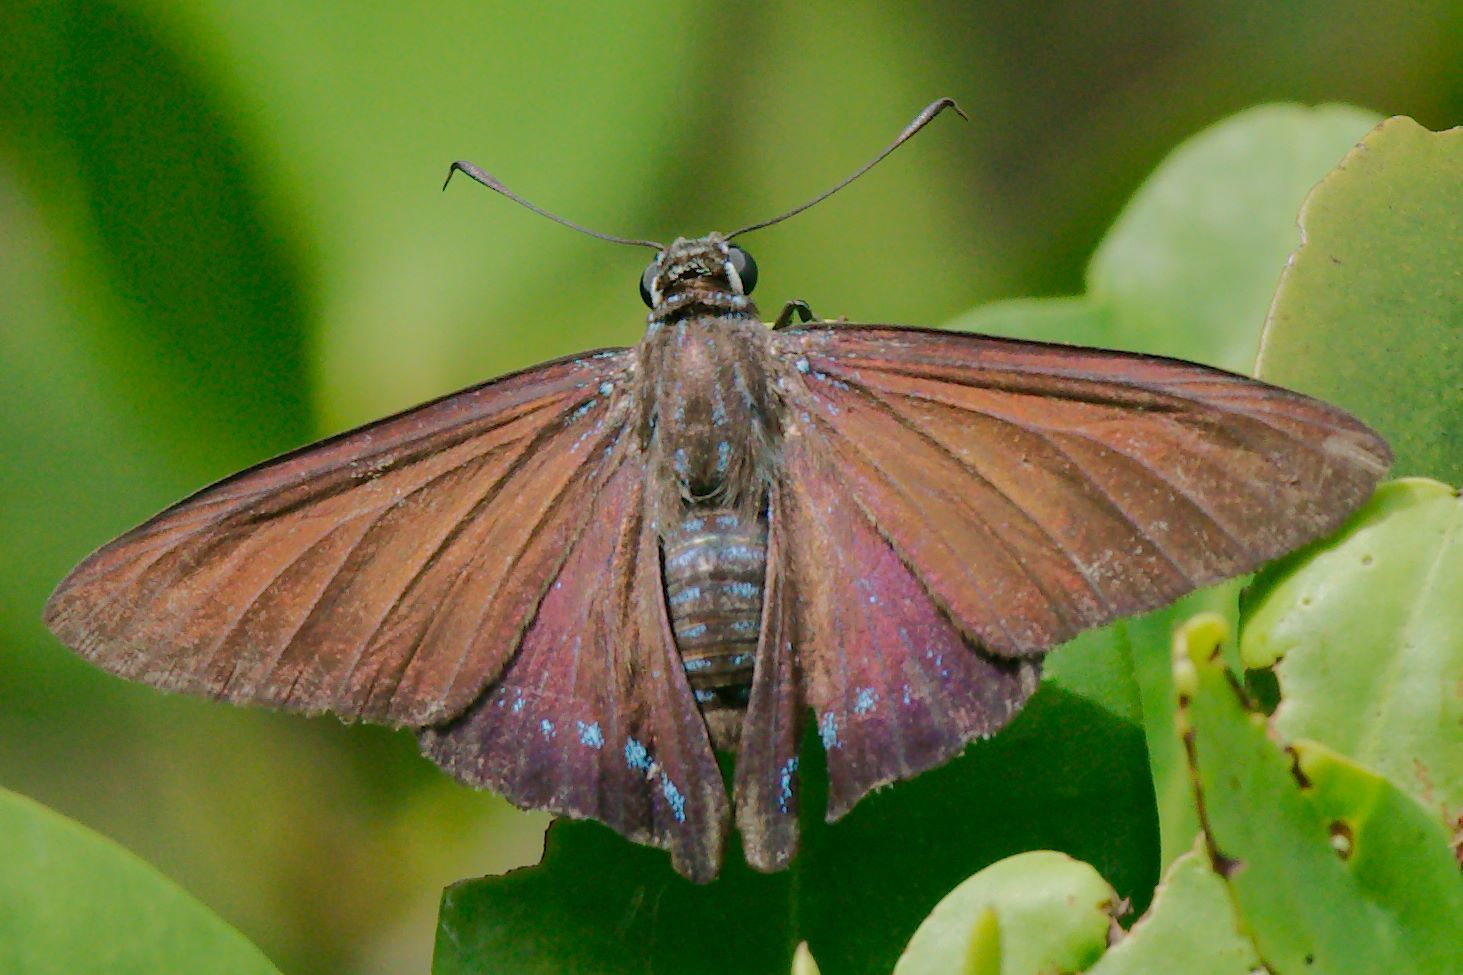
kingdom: Animalia
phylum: Arthropoda
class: Insecta
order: Lepidoptera
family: Hesperiidae
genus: Phocides
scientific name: Phocides pigmalion
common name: Mangrove skipper
